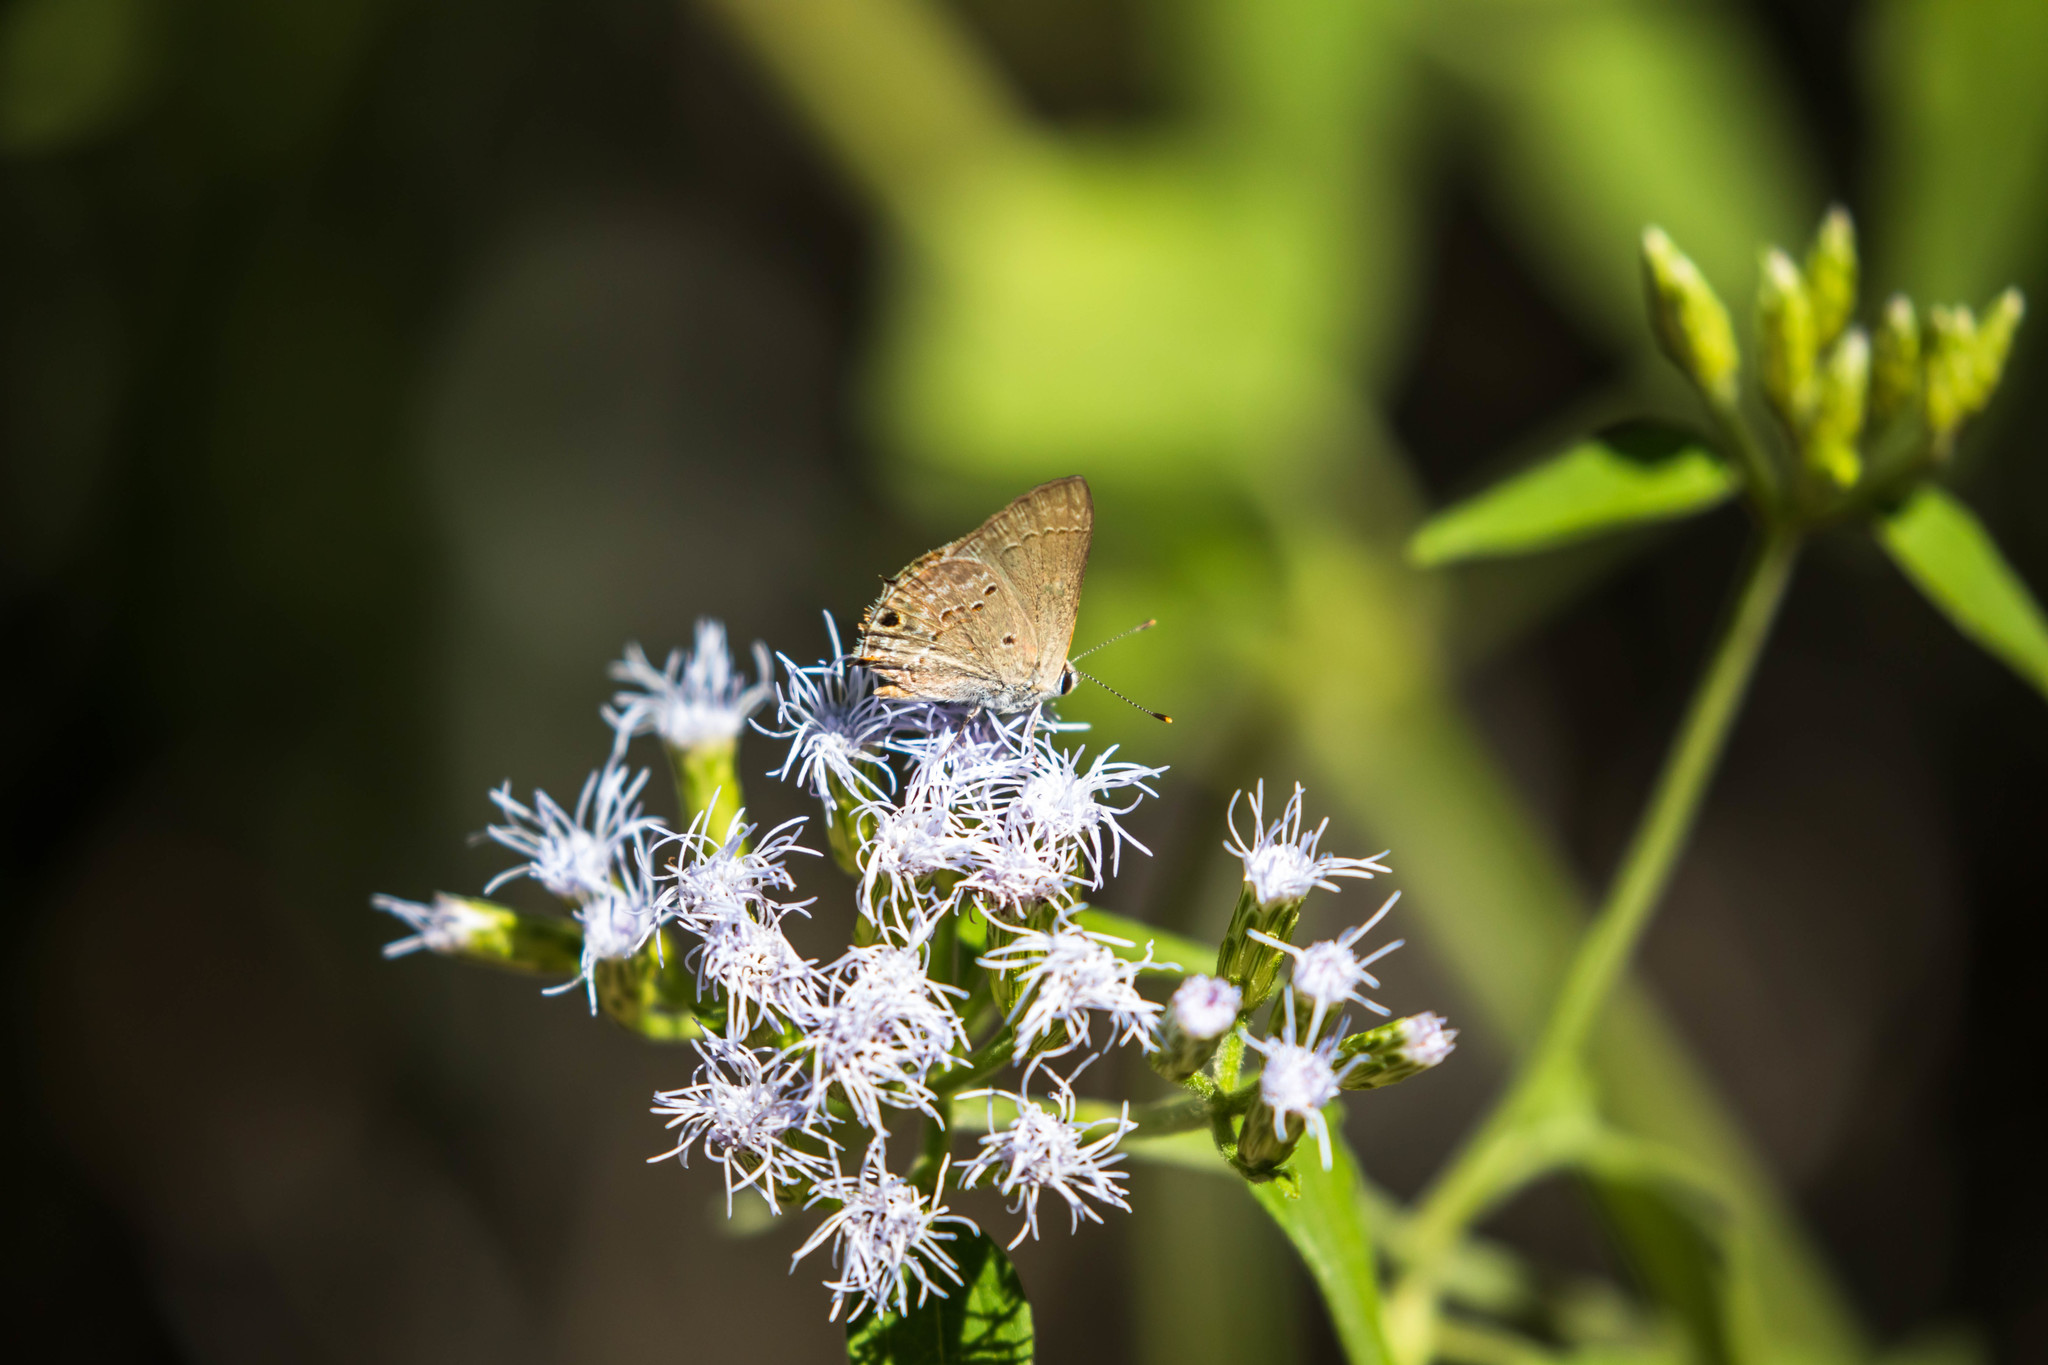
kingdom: Animalia
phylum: Arthropoda
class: Insecta
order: Lepidoptera
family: Lycaenidae
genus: Callicista
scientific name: Callicista columella
